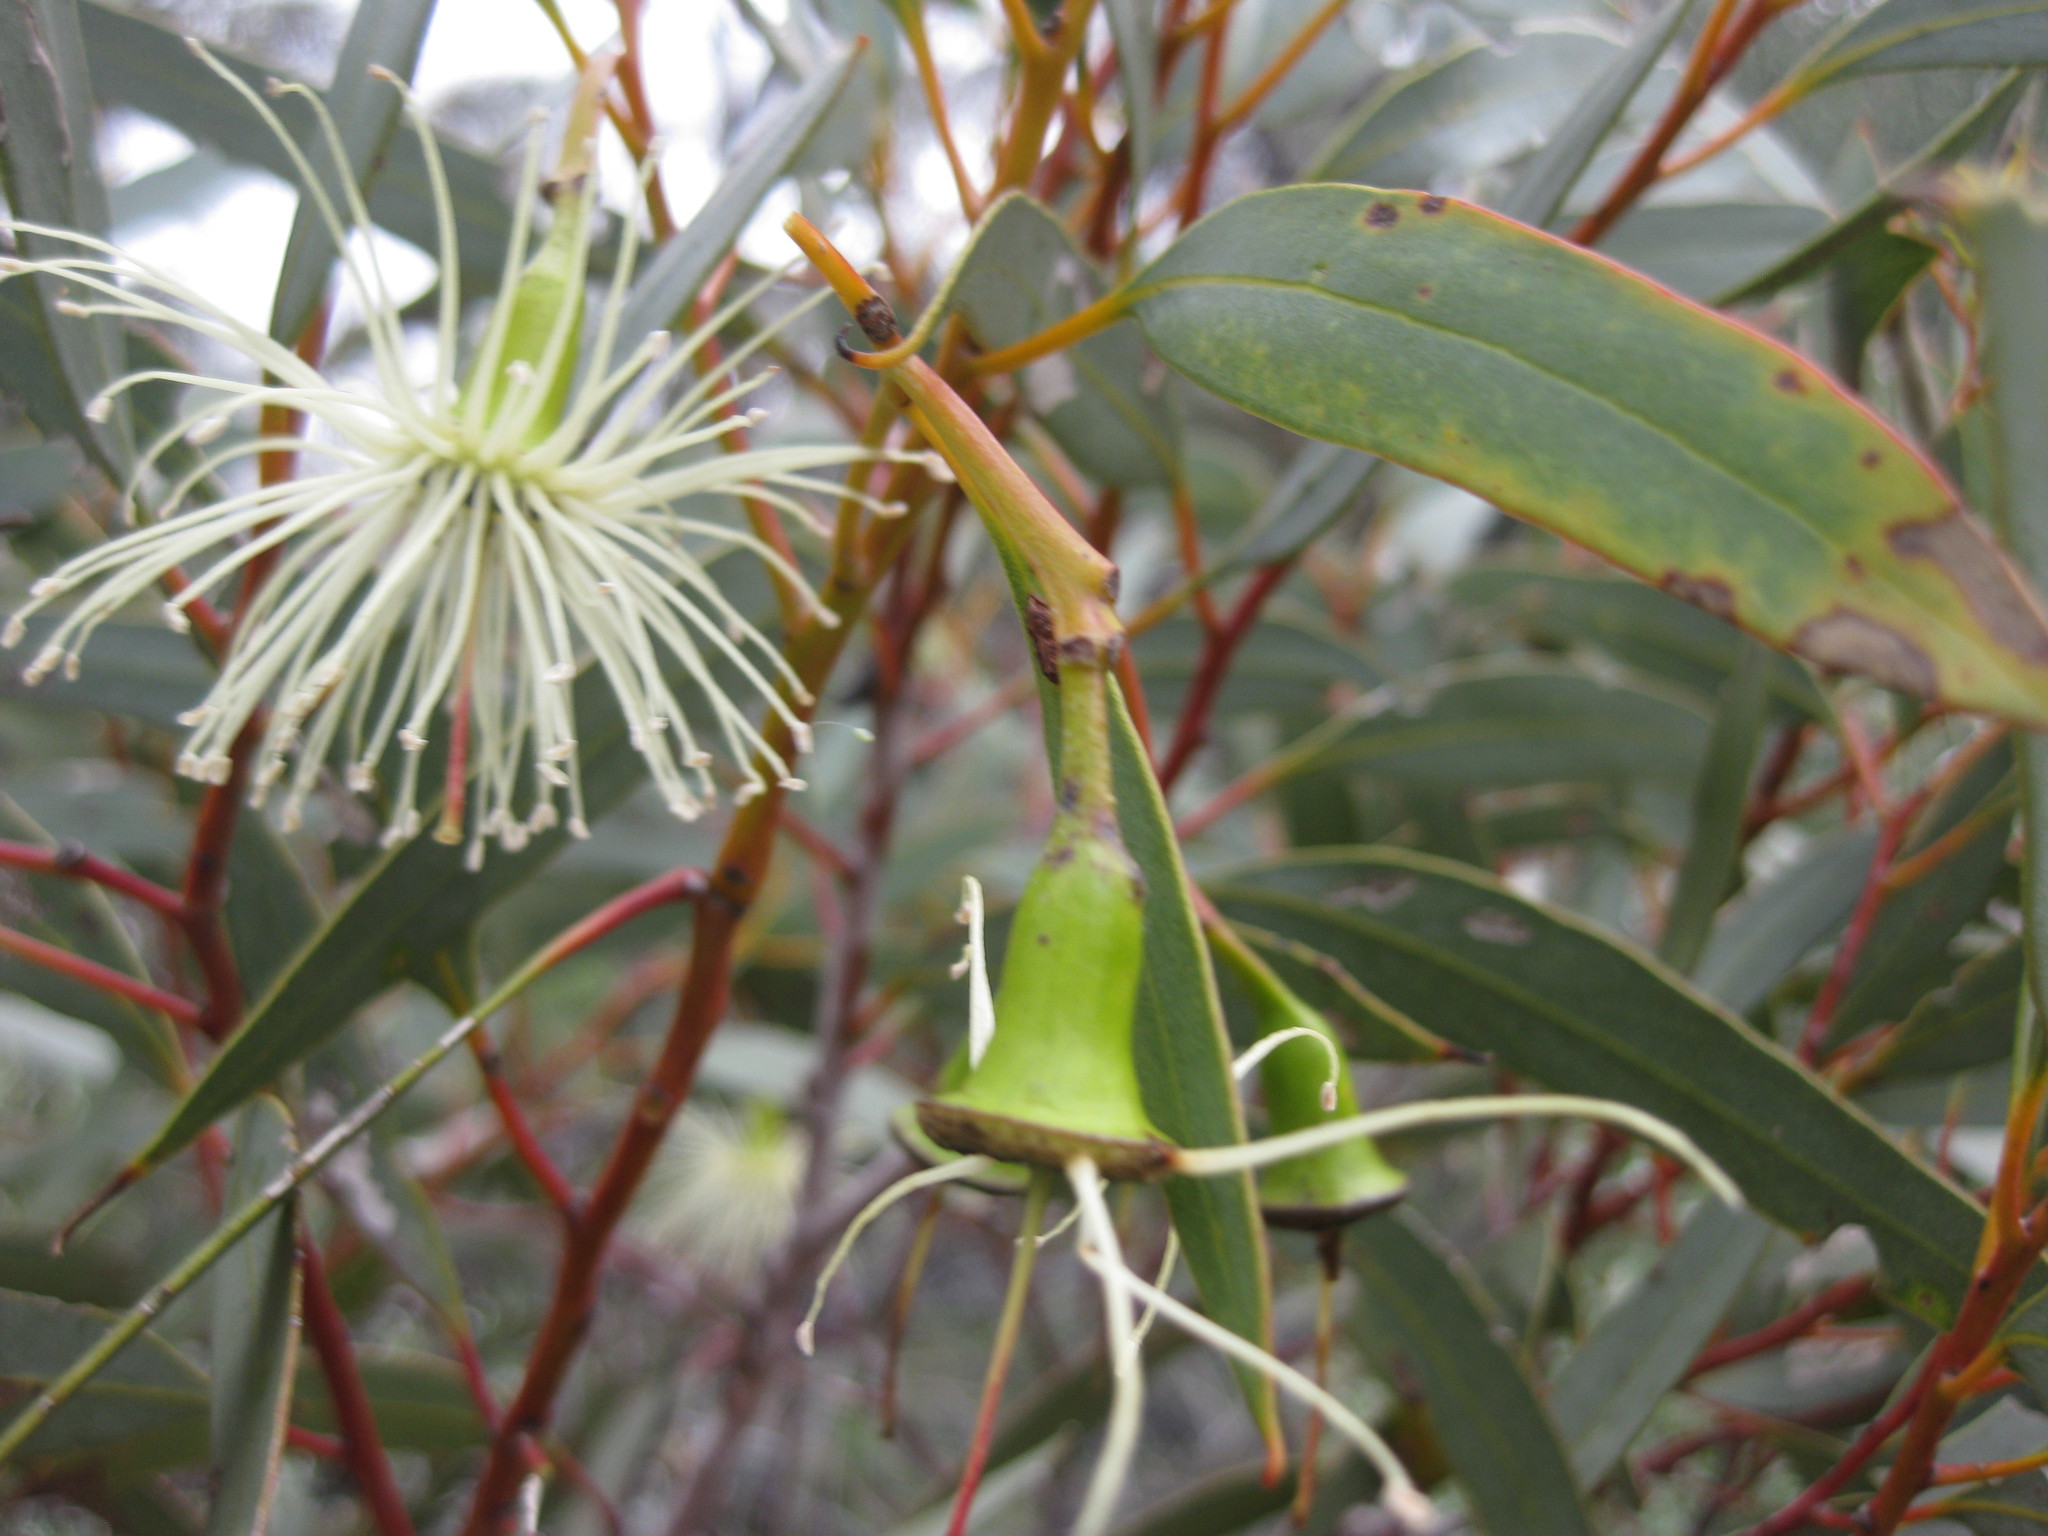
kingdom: Plantae
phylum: Tracheophyta
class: Magnoliopsida
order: Myrtales
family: Myrtaceae
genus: Eucalyptus
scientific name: Eucalyptus aspratilis
